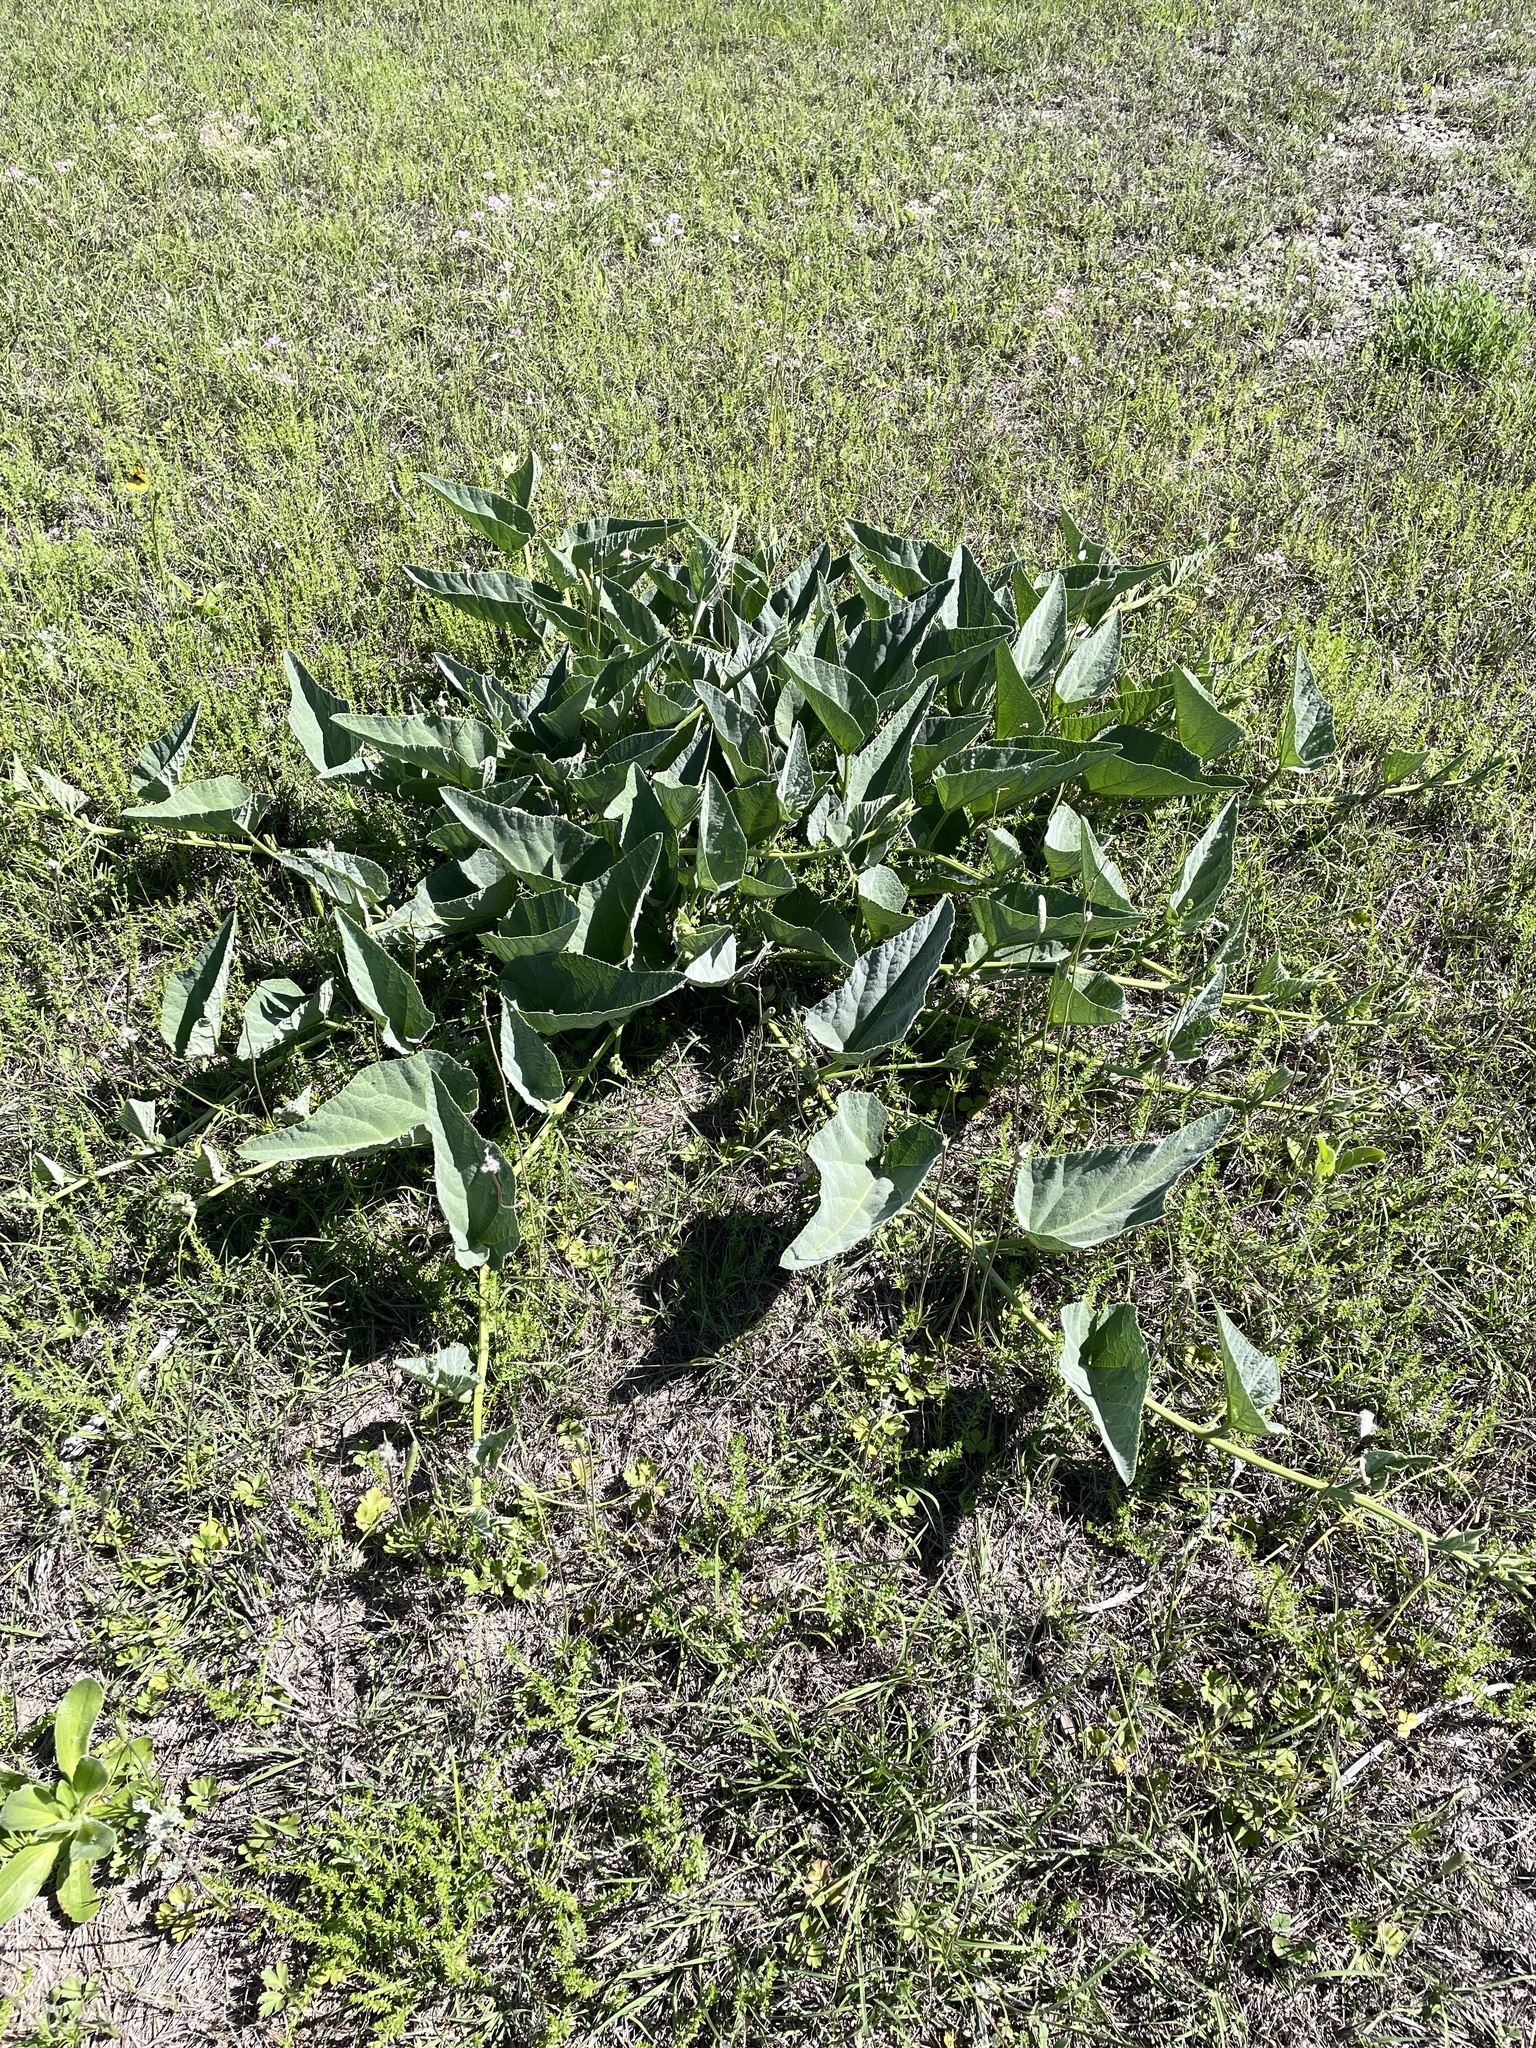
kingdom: Plantae
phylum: Tracheophyta
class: Magnoliopsida
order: Cucurbitales
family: Cucurbitaceae
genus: Cucurbita
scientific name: Cucurbita foetidissima
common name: Buffalo gourd
